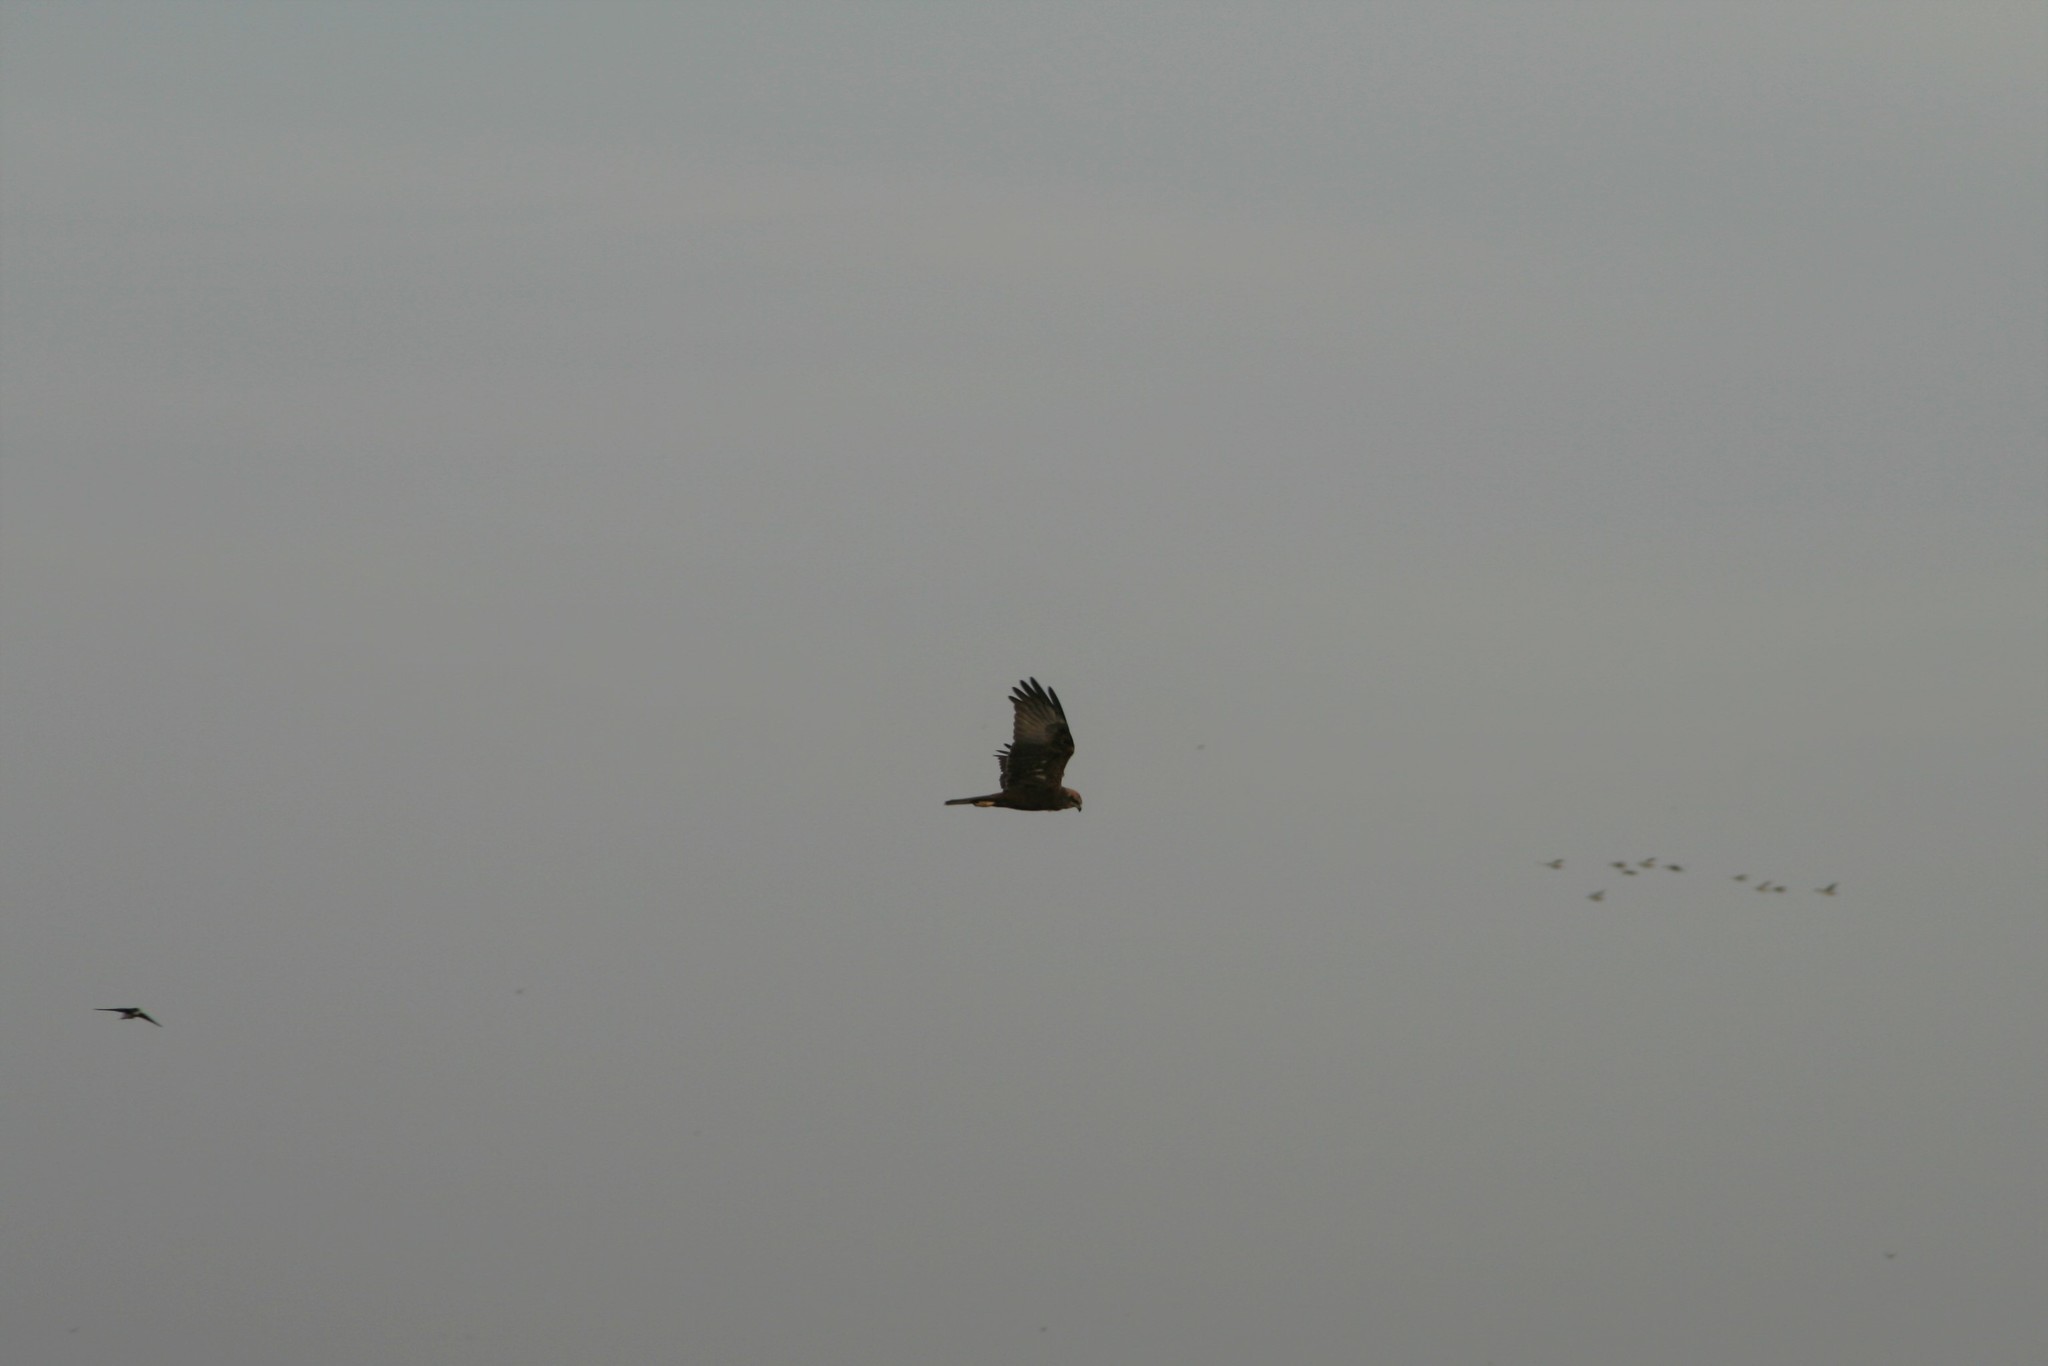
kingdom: Animalia
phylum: Chordata
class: Aves
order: Accipitriformes
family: Accipitridae
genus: Circus
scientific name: Circus aeruginosus
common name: Western marsh harrier
